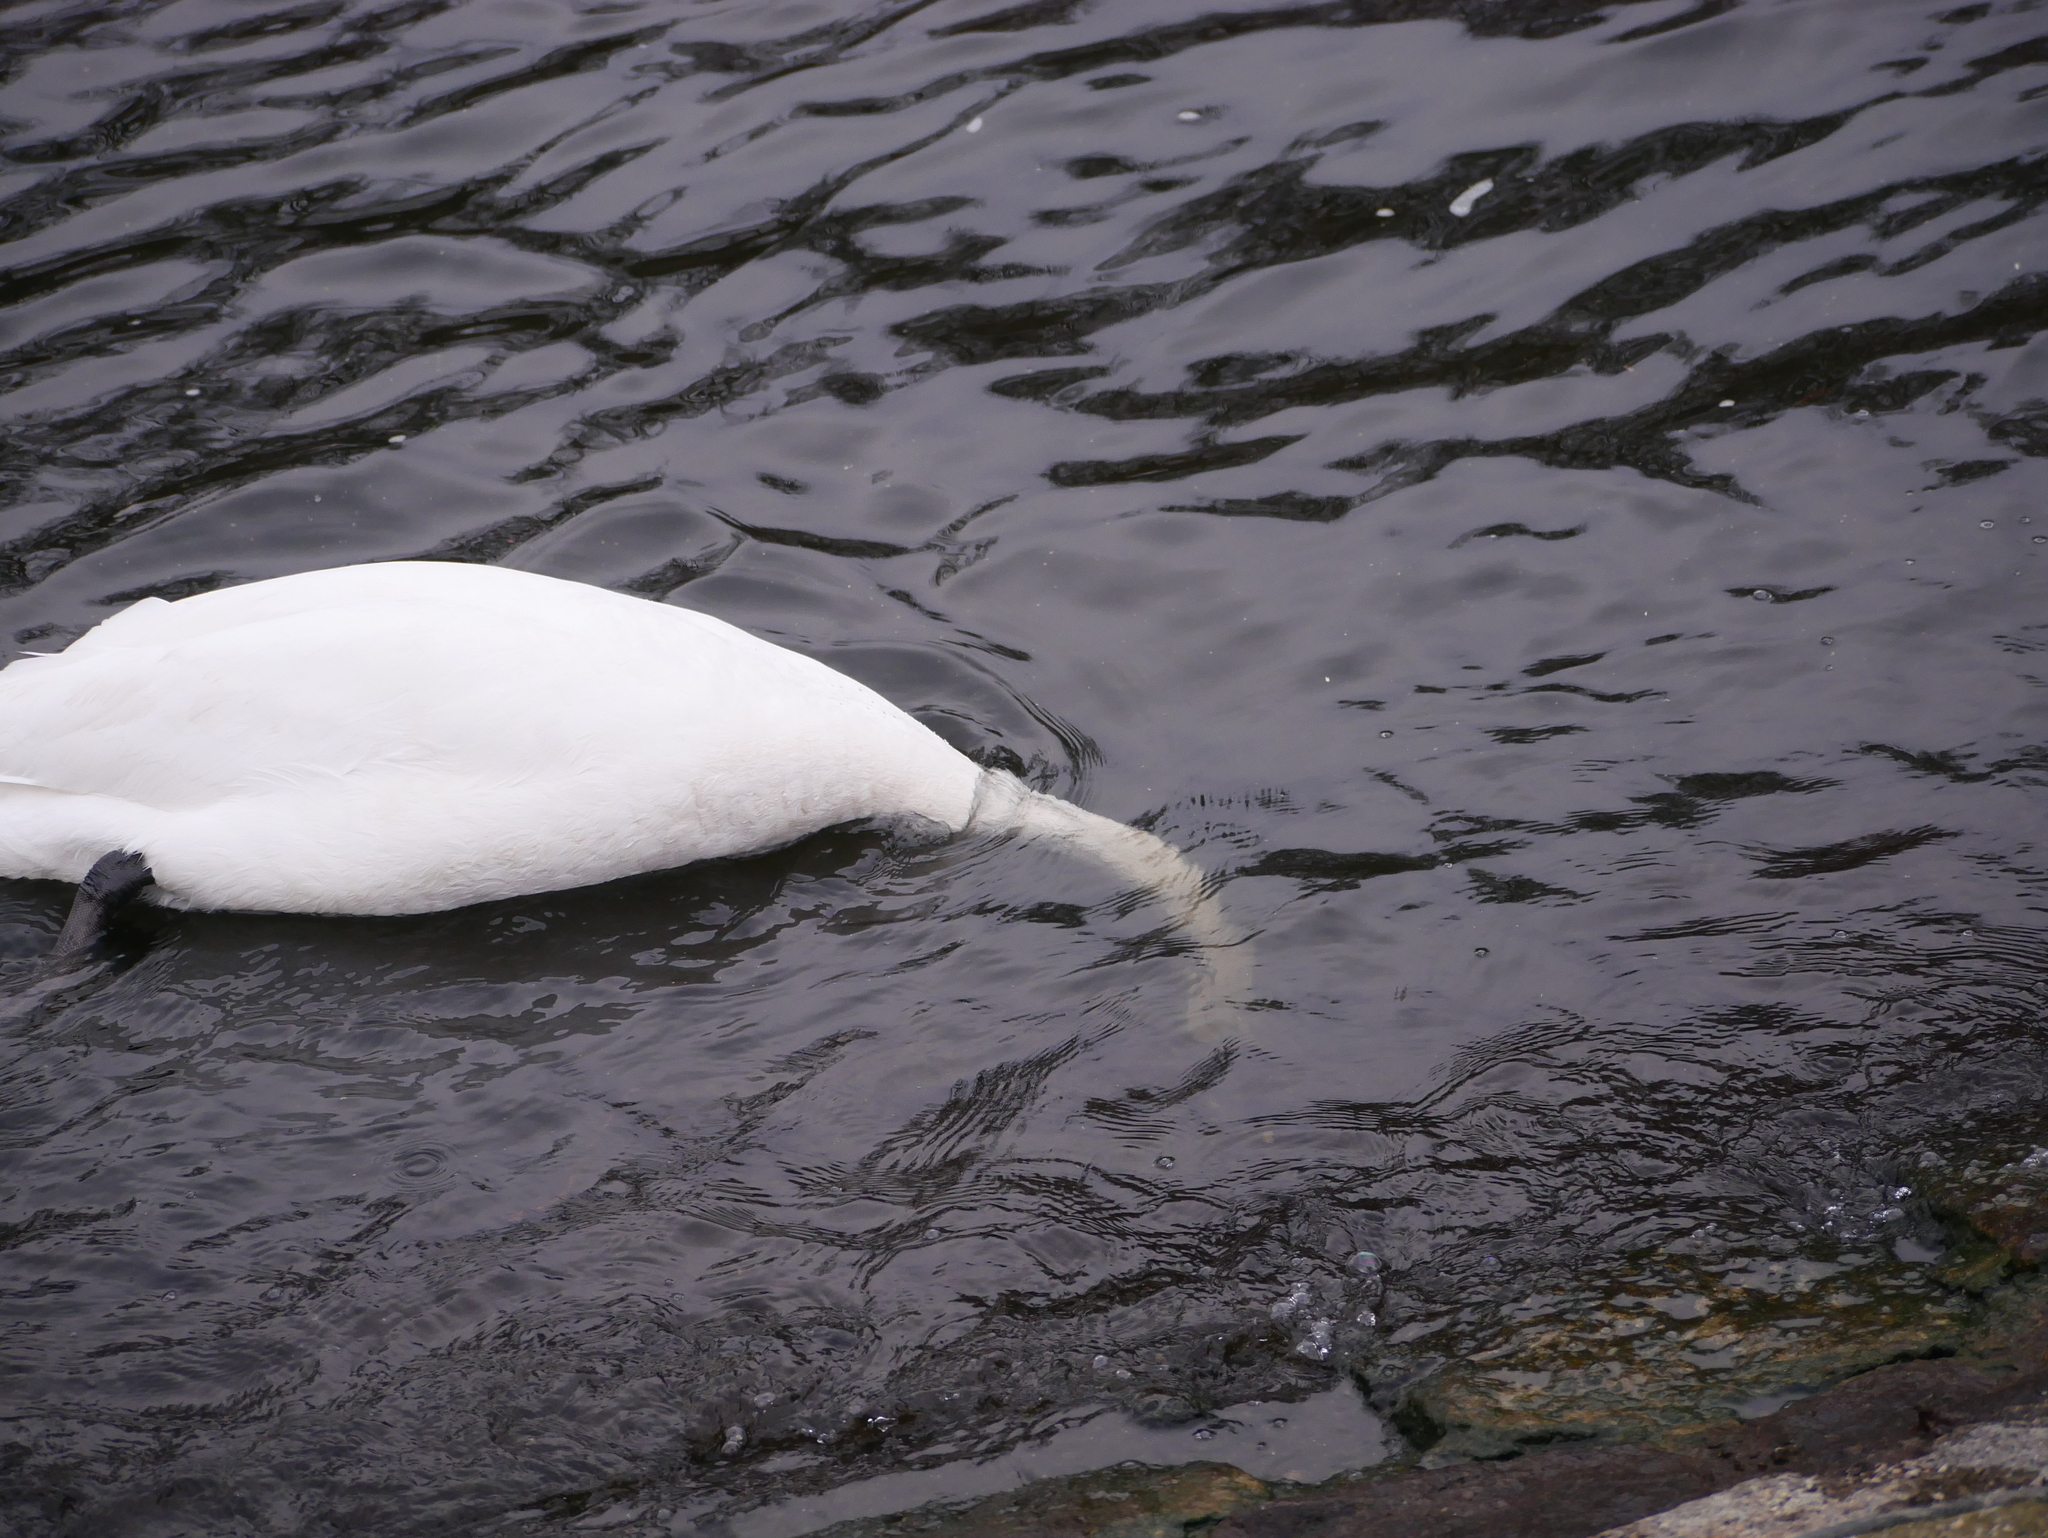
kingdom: Animalia
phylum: Chordata
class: Aves
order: Anseriformes
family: Anatidae
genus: Cygnus
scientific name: Cygnus olor
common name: Mute swan
